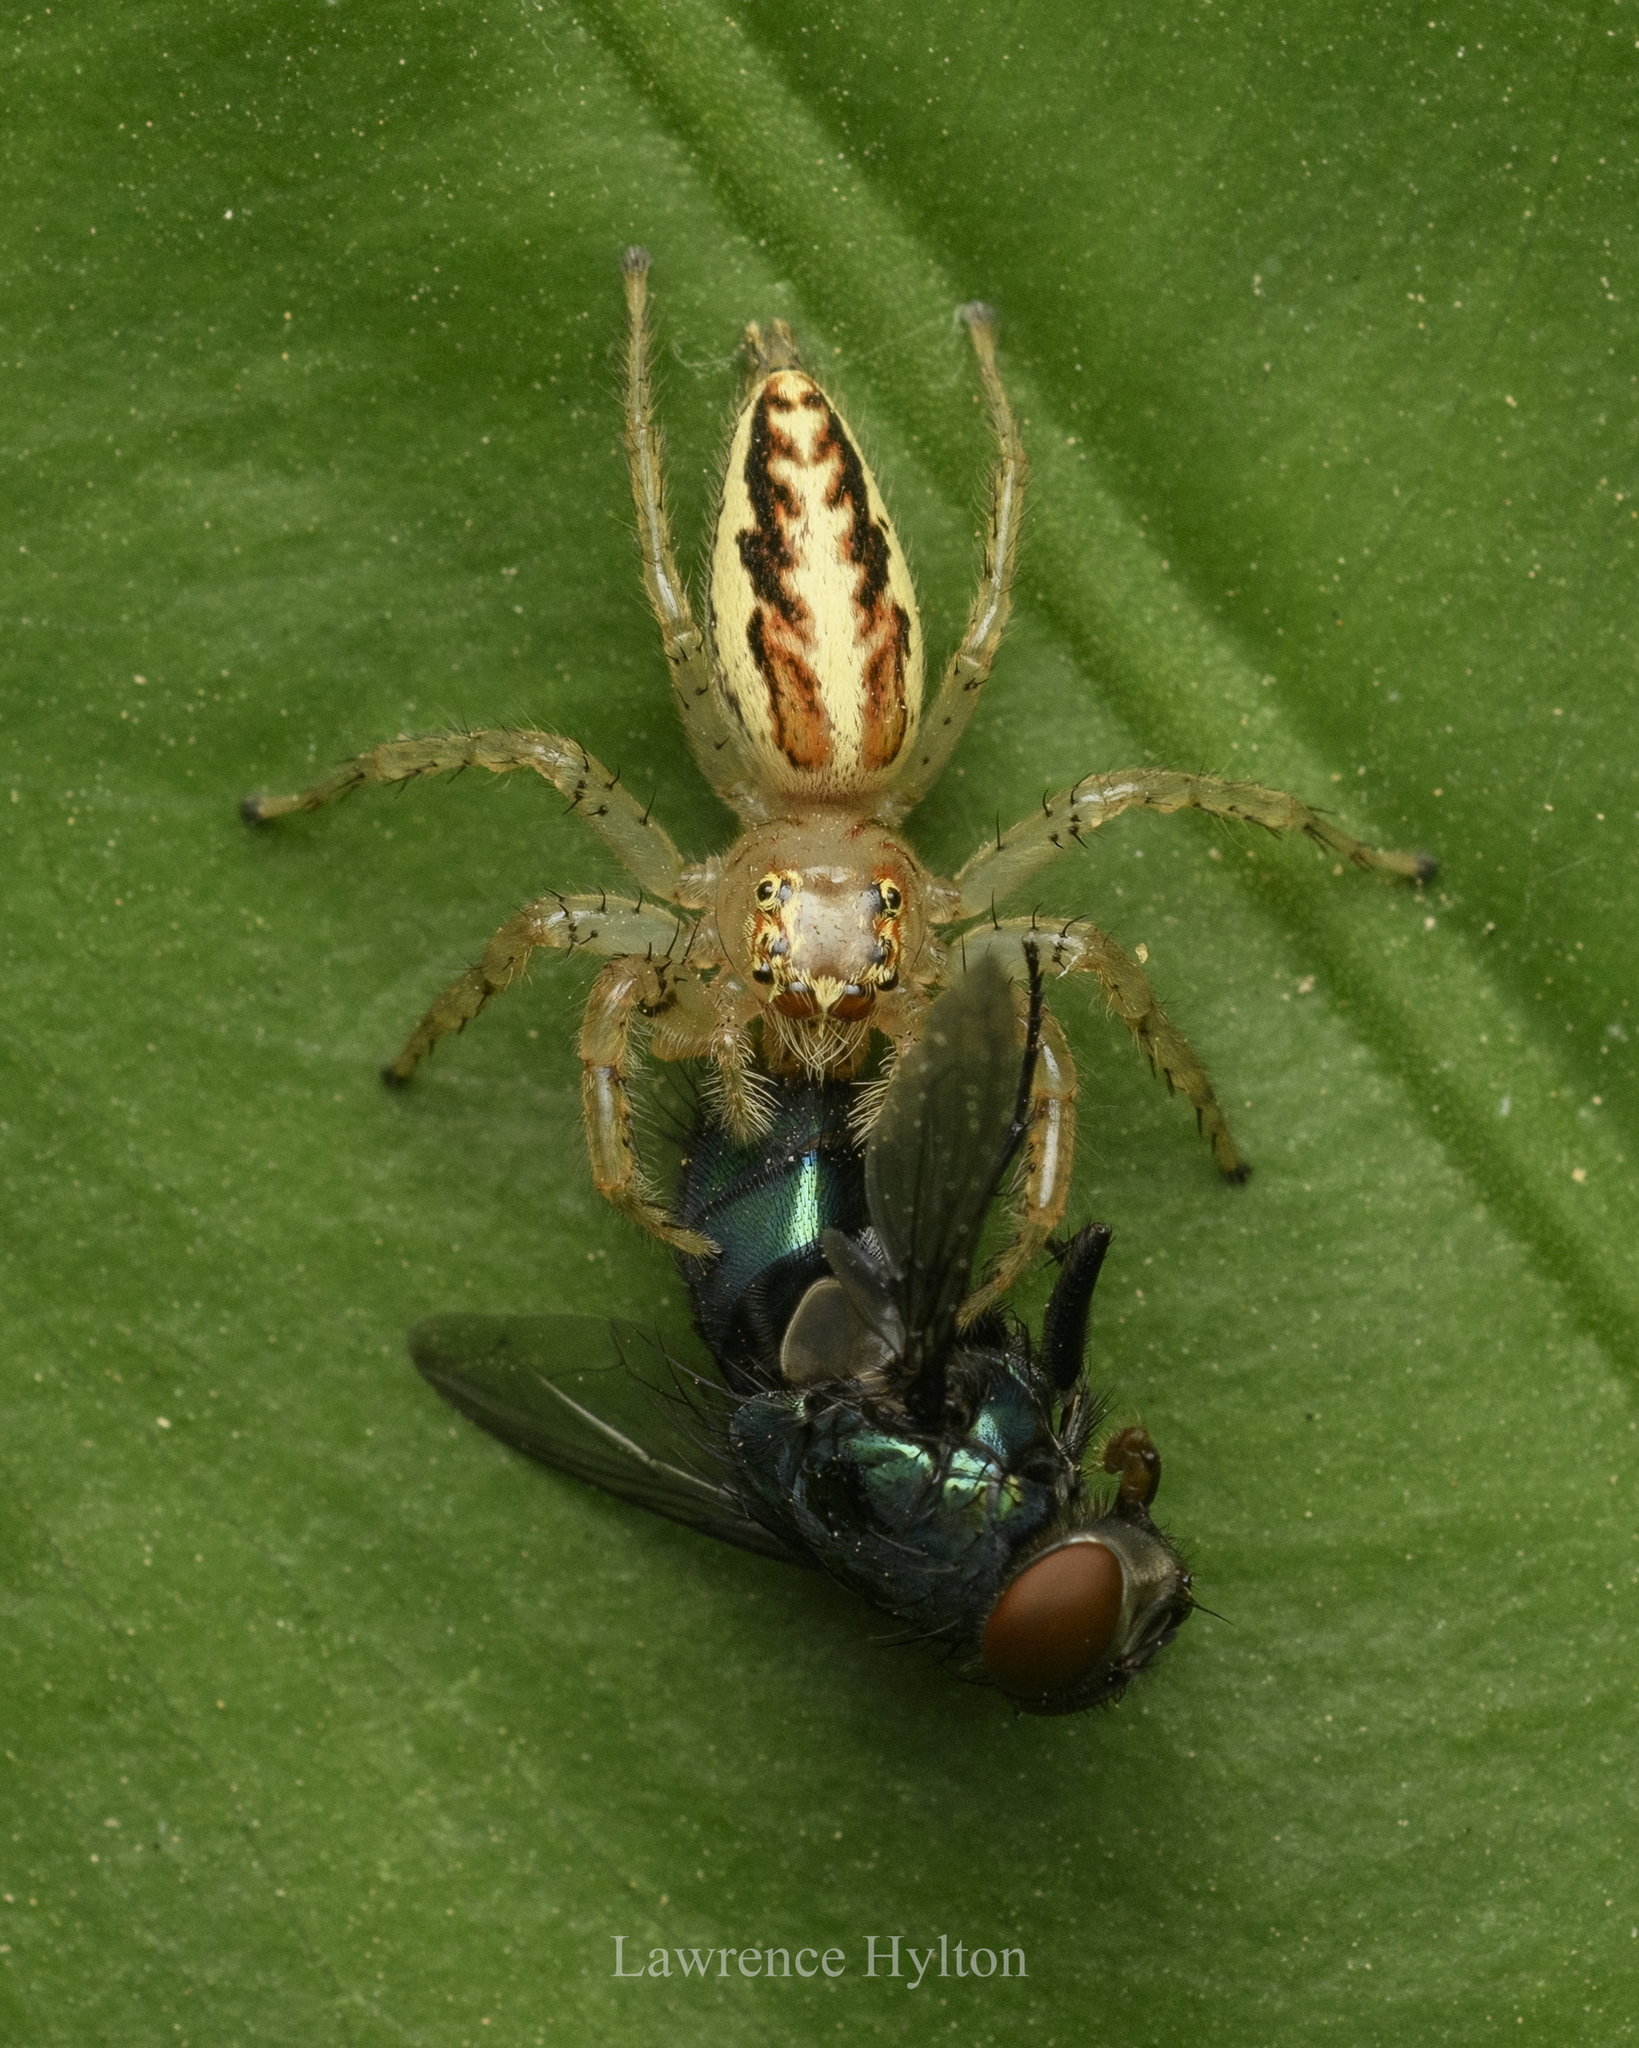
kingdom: Animalia
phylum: Arthropoda
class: Arachnida
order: Araneae
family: Salticidae
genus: Telamonia
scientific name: Telamonia caprina
